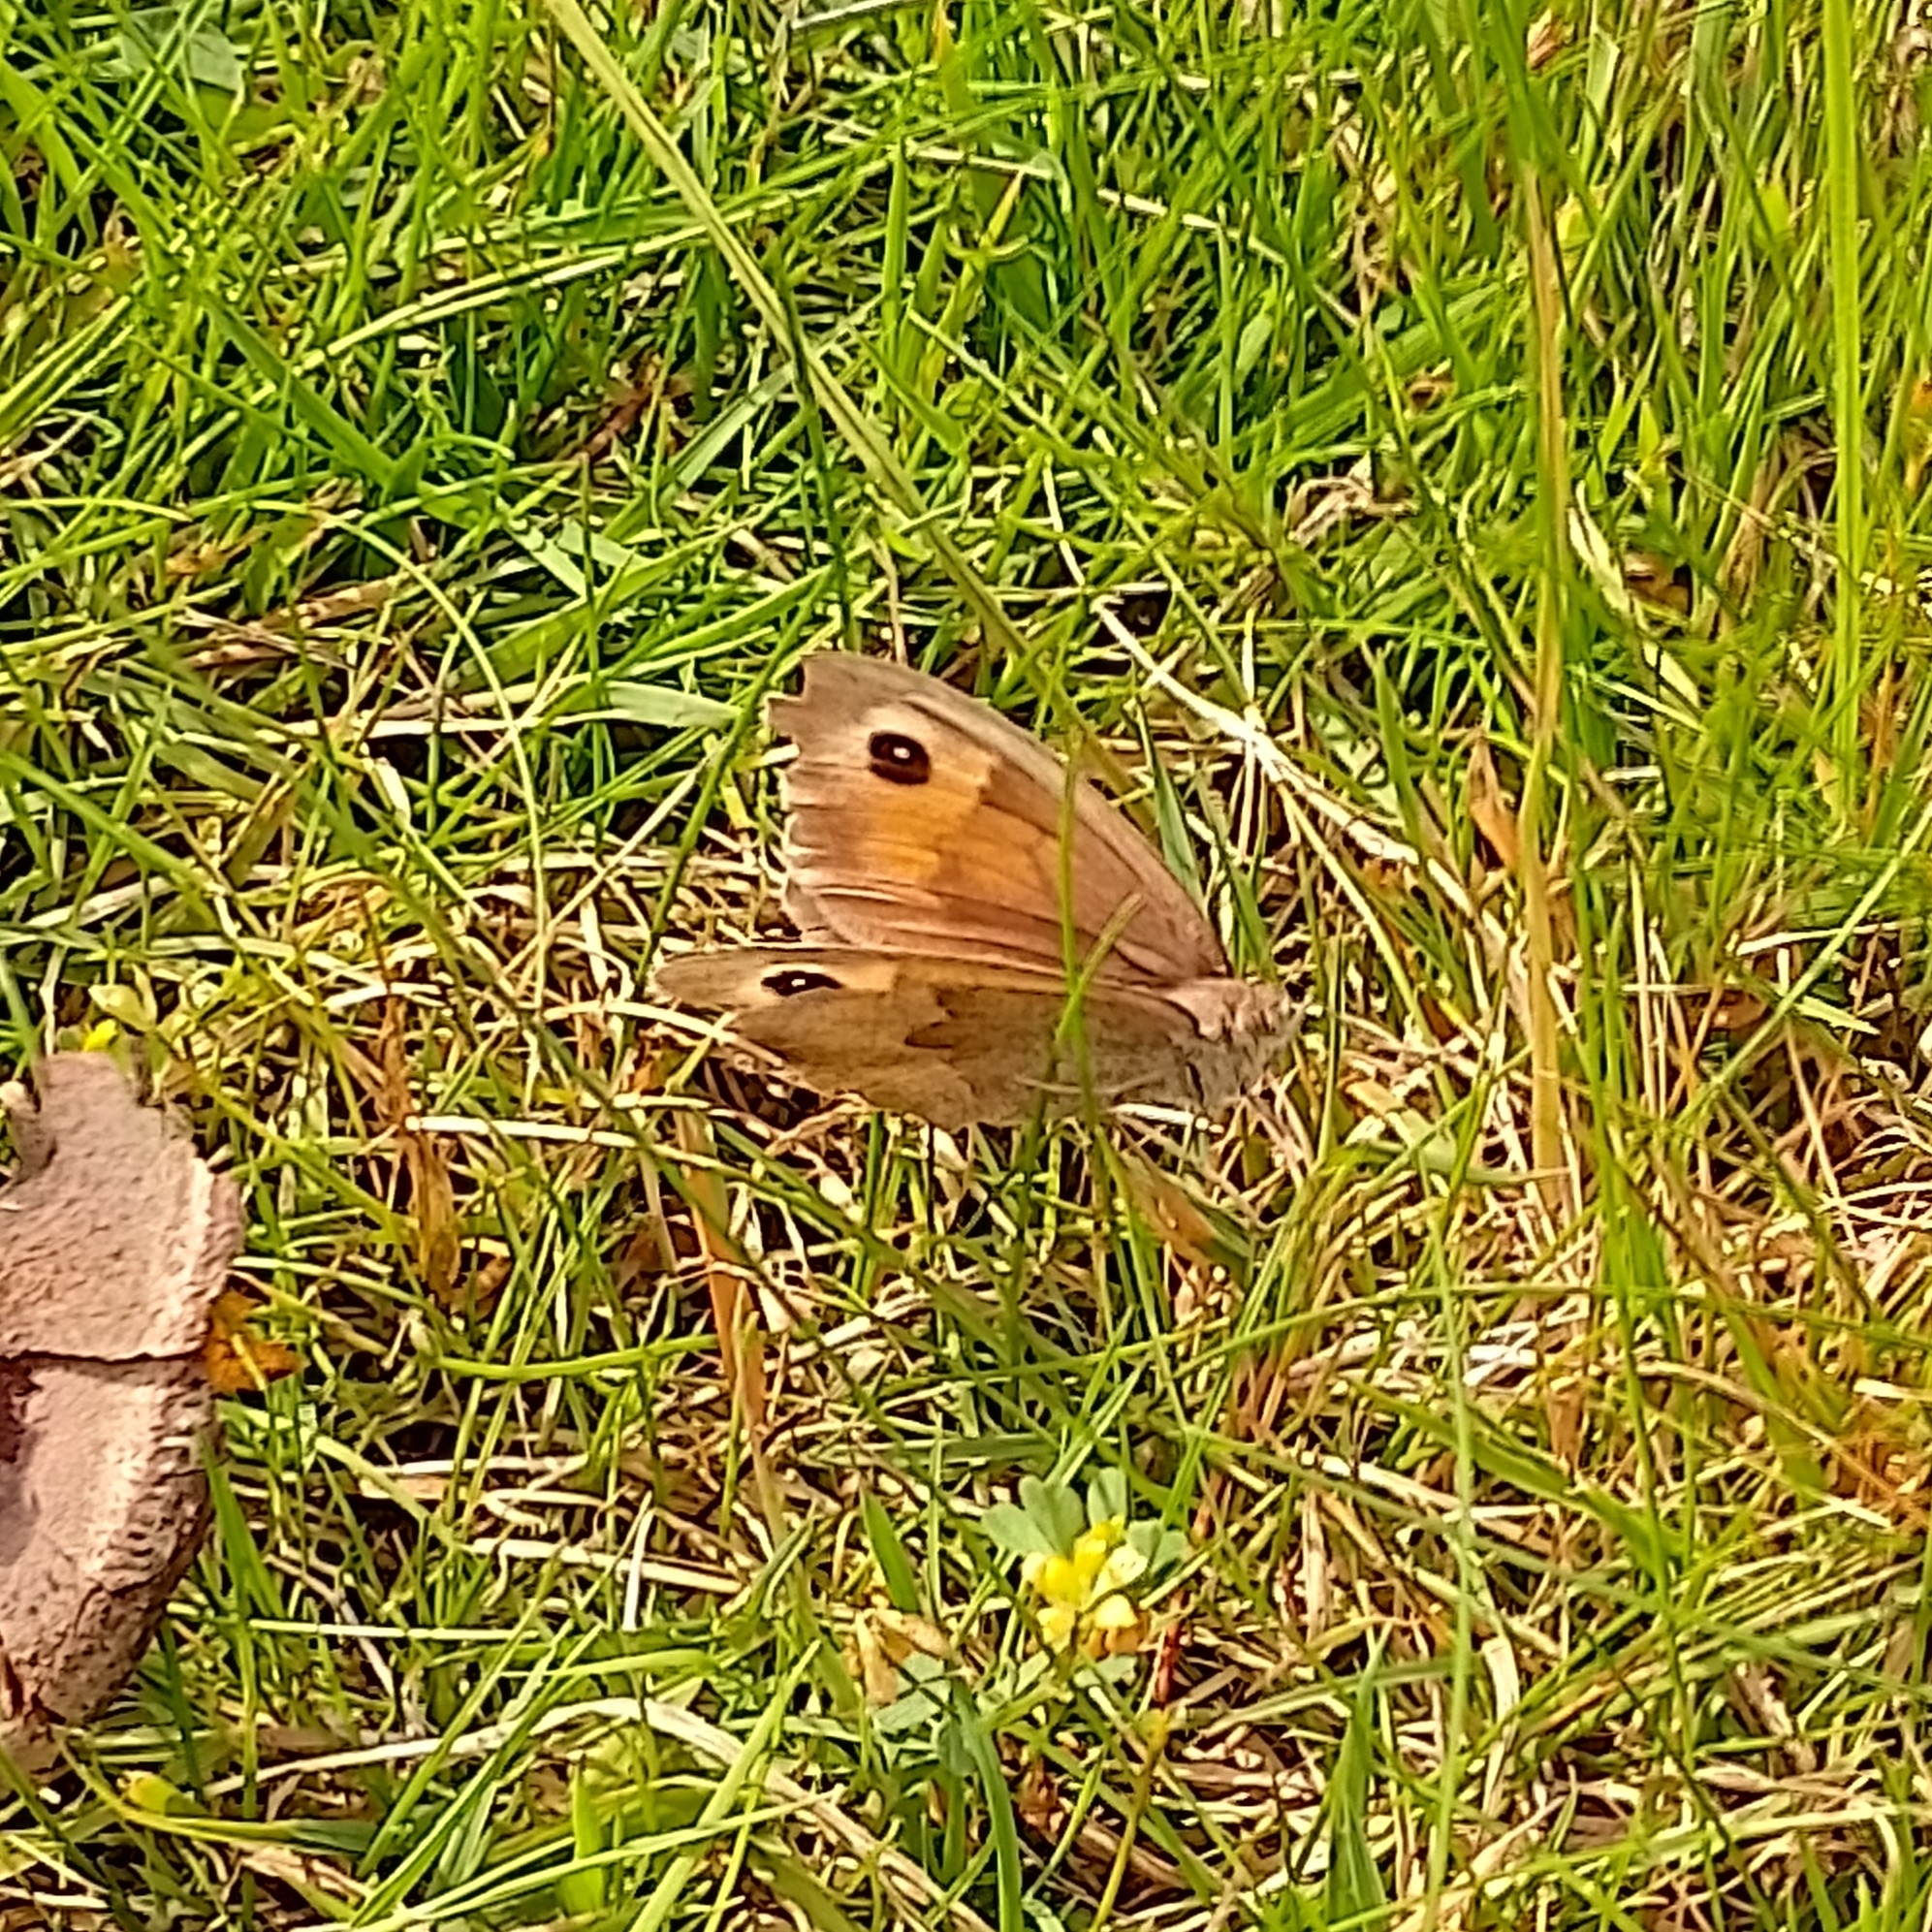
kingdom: Animalia
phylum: Arthropoda
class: Insecta
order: Lepidoptera
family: Nymphalidae
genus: Maniola
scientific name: Maniola jurtina
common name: Meadow brown
